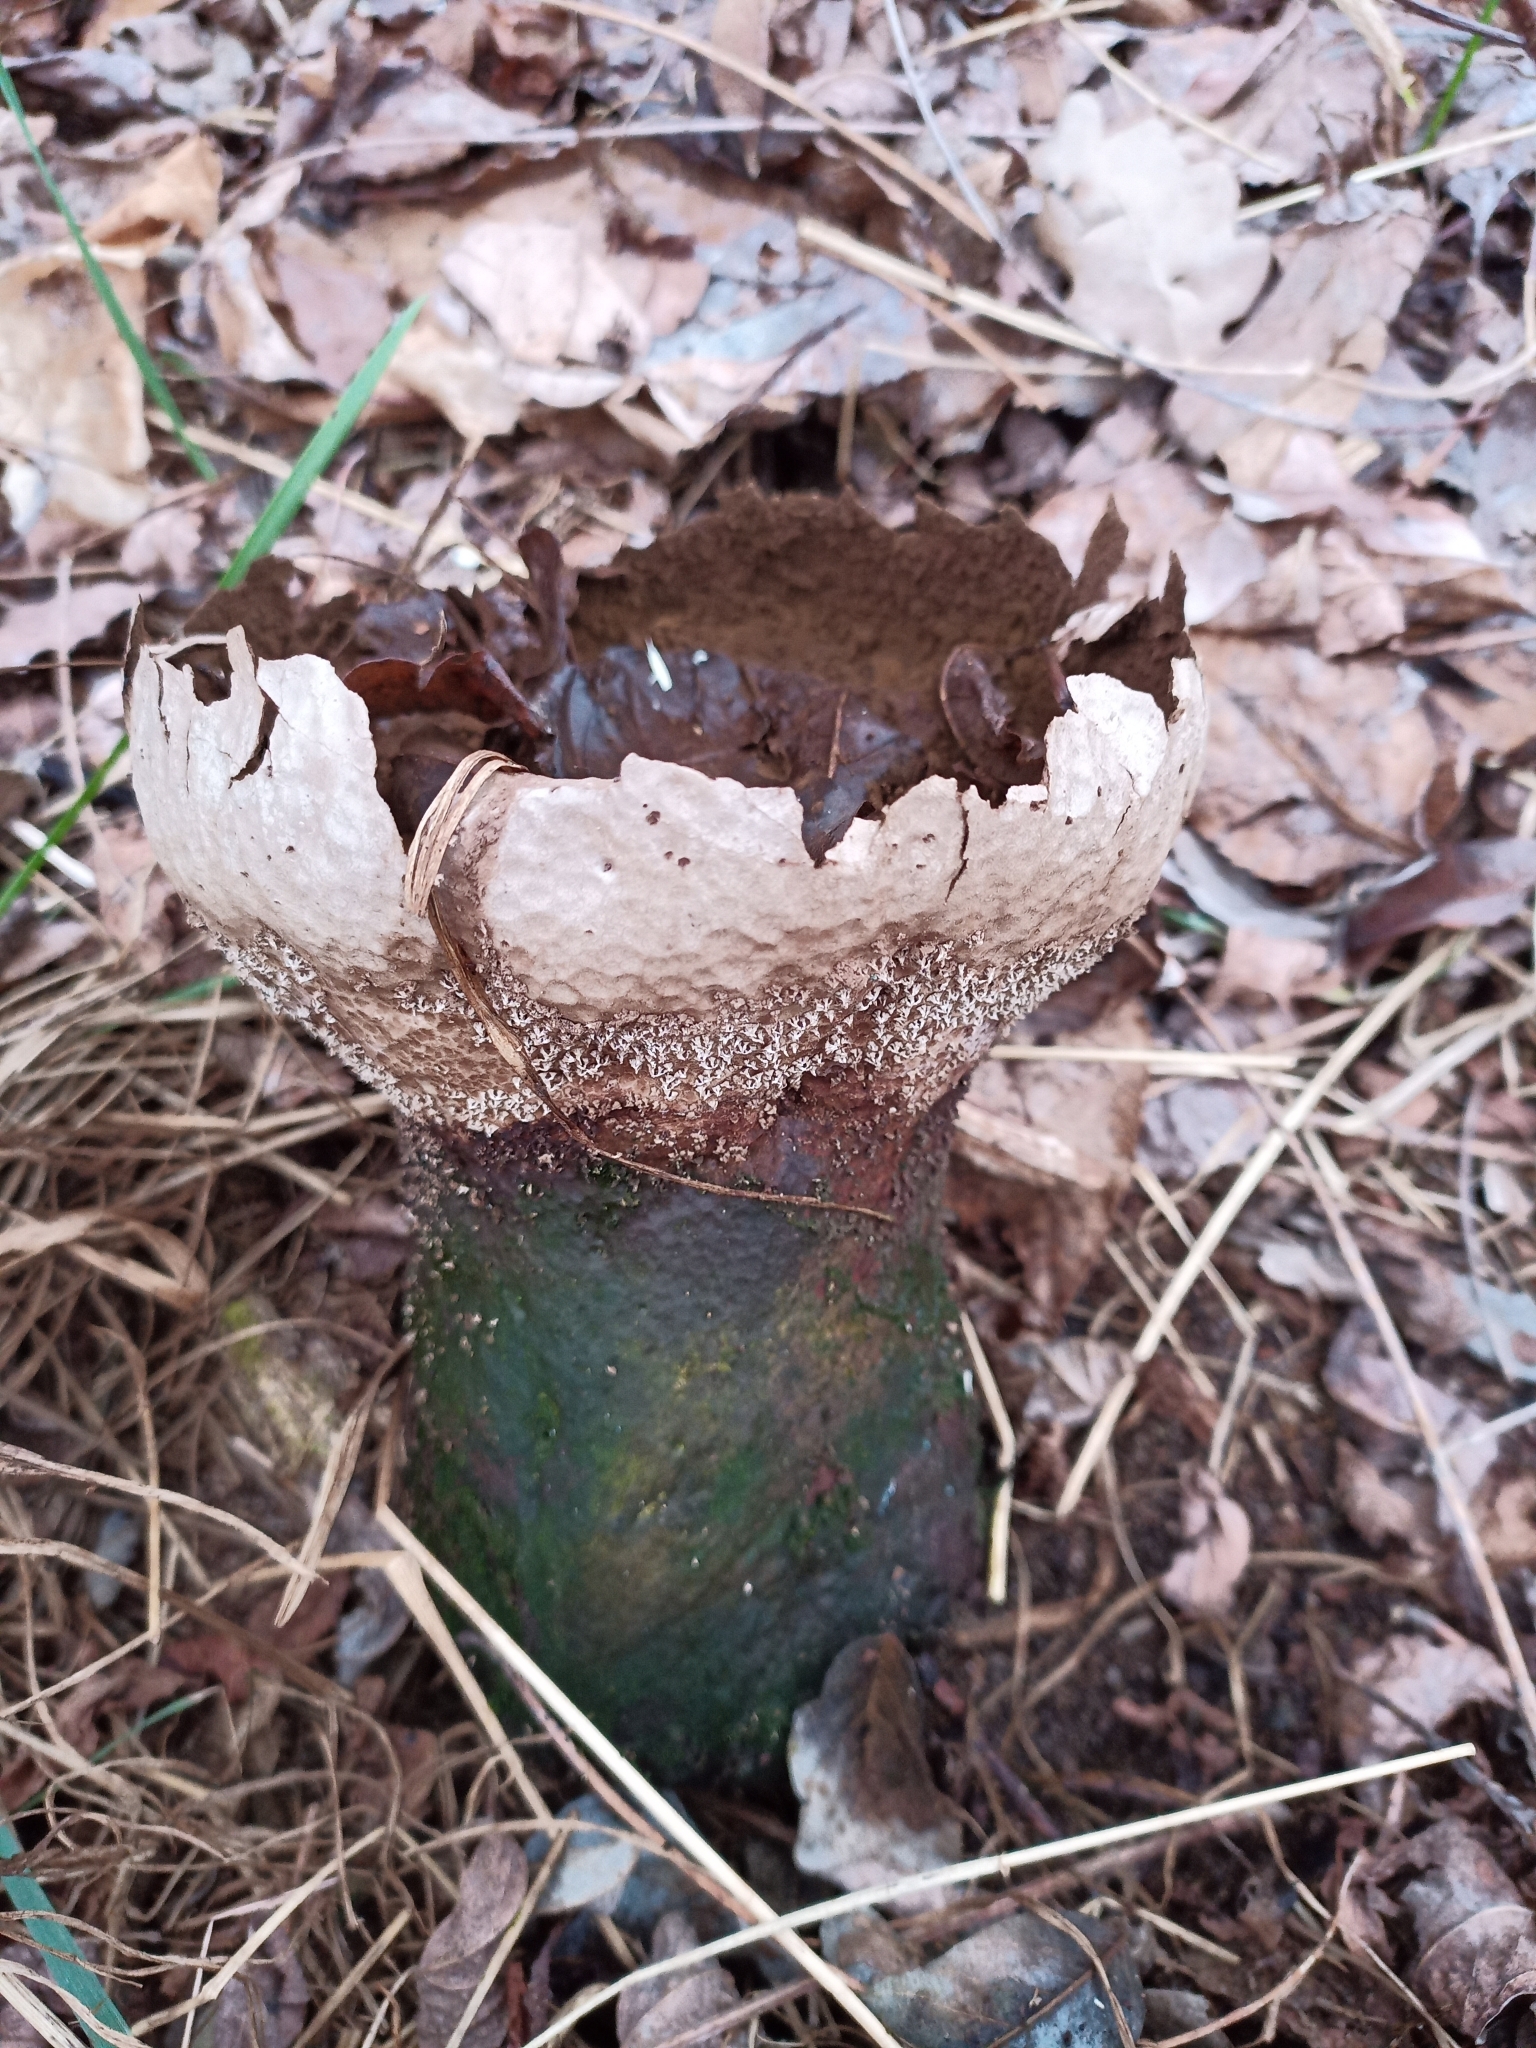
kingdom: Fungi
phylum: Basidiomycota
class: Agaricomycetes
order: Agaricales
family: Lycoperdaceae
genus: Lycoperdon
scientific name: Lycoperdon excipuliforme
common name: Pestle puffball
